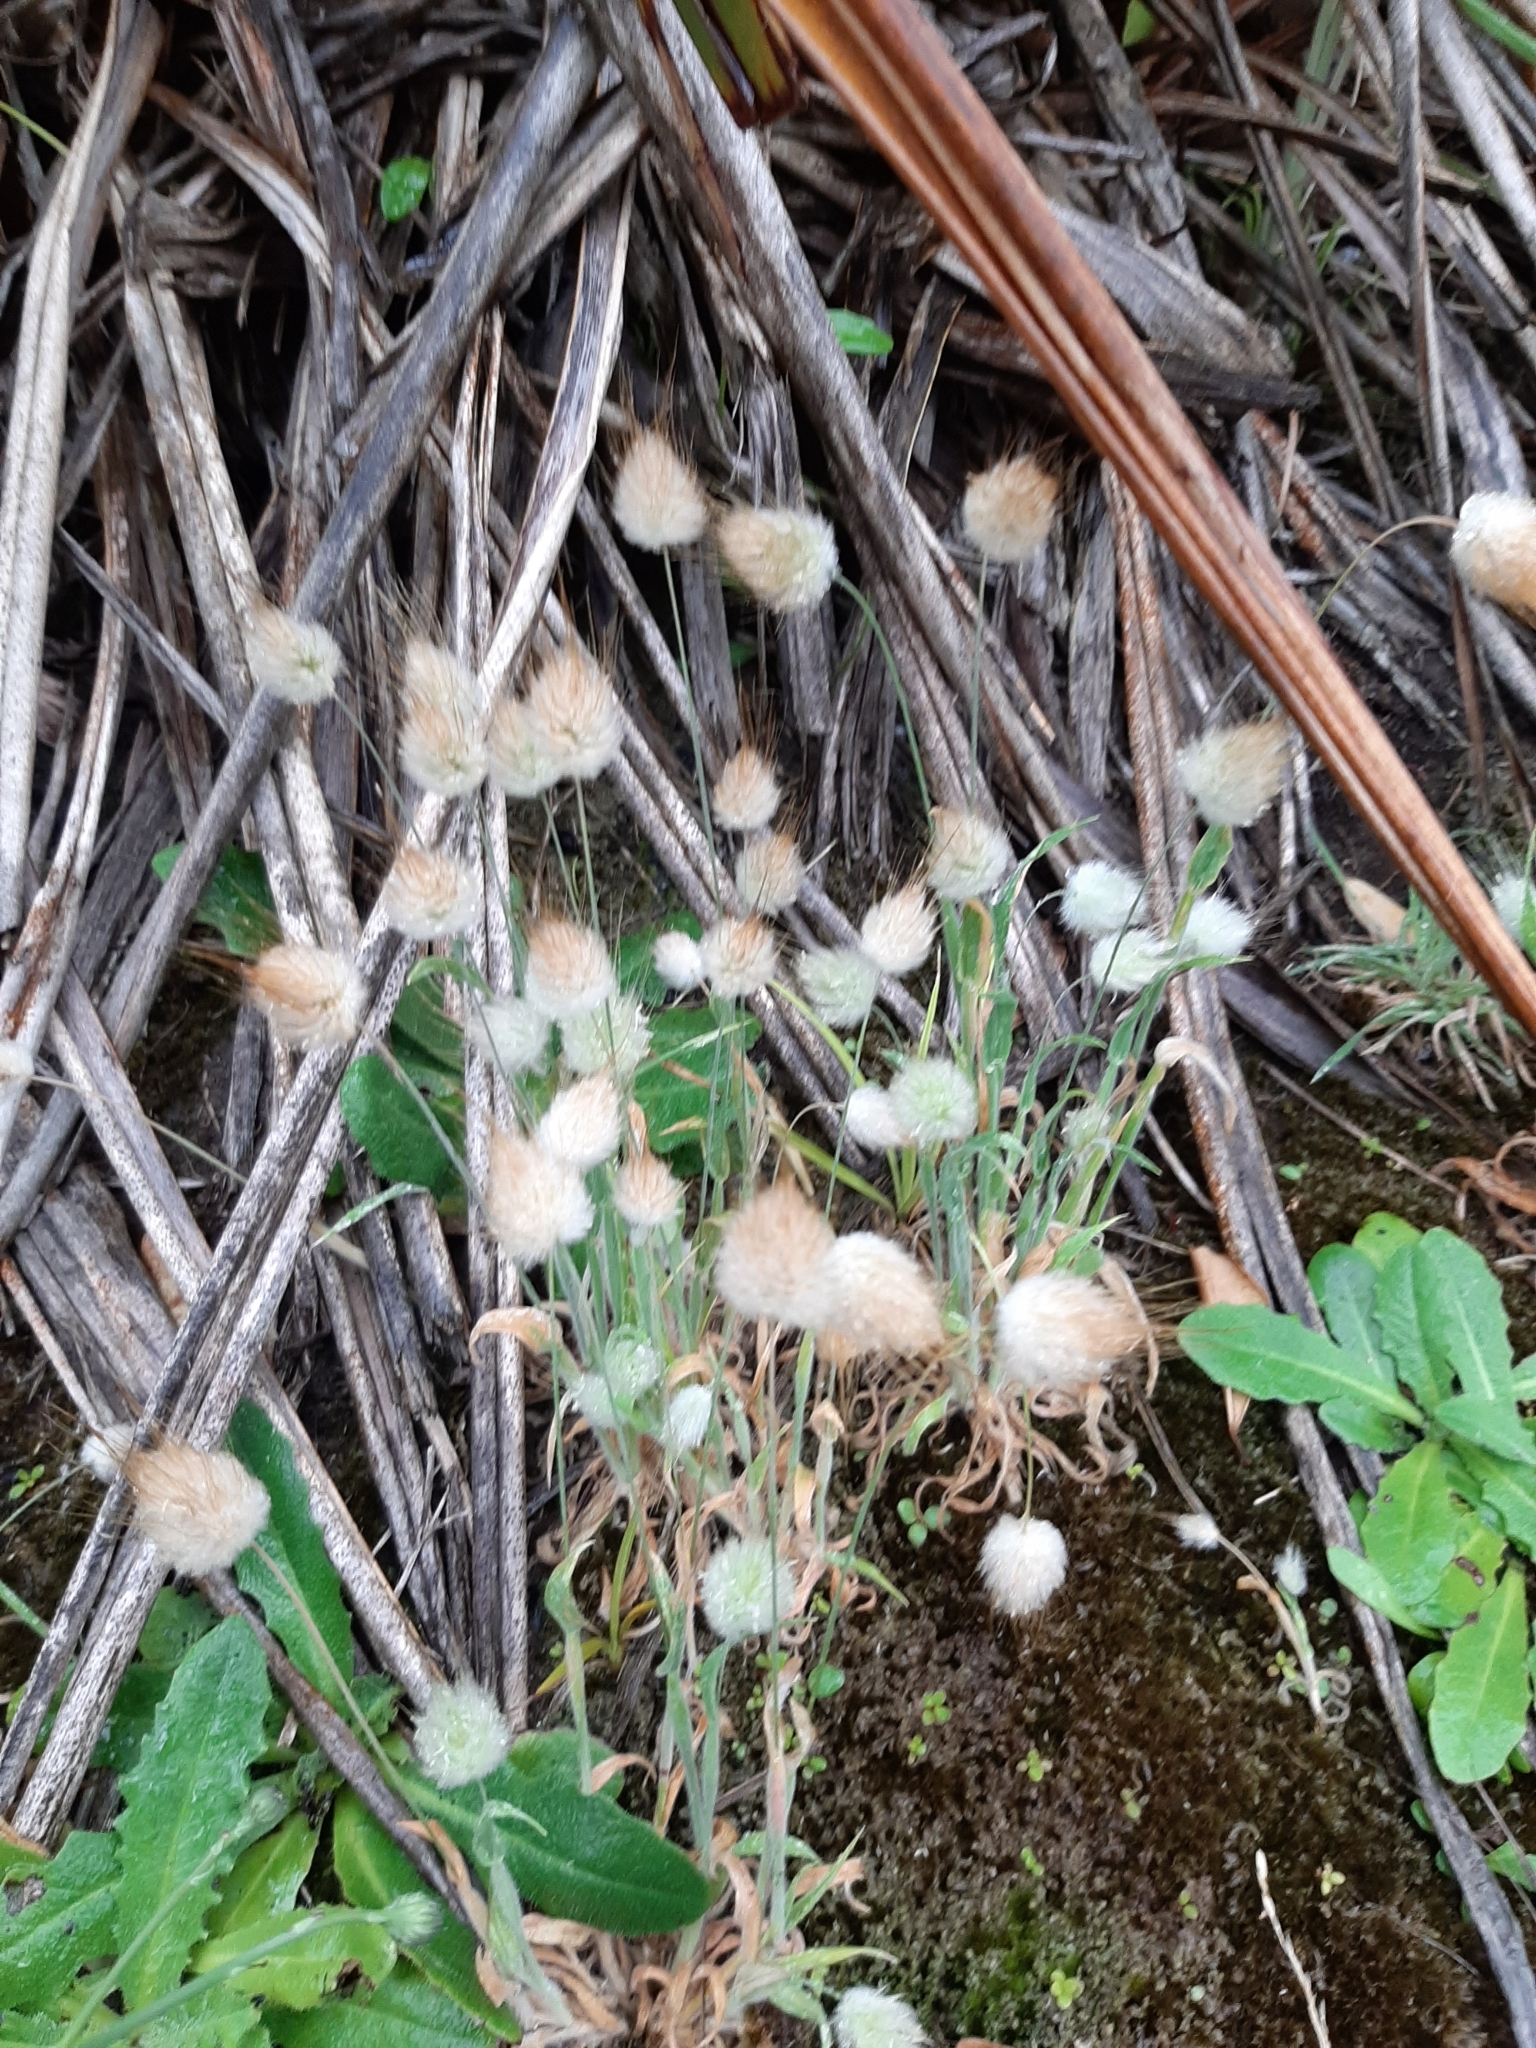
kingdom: Plantae
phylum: Tracheophyta
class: Liliopsida
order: Poales
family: Poaceae
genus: Lagurus
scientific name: Lagurus ovatus
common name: Hare's-tail
